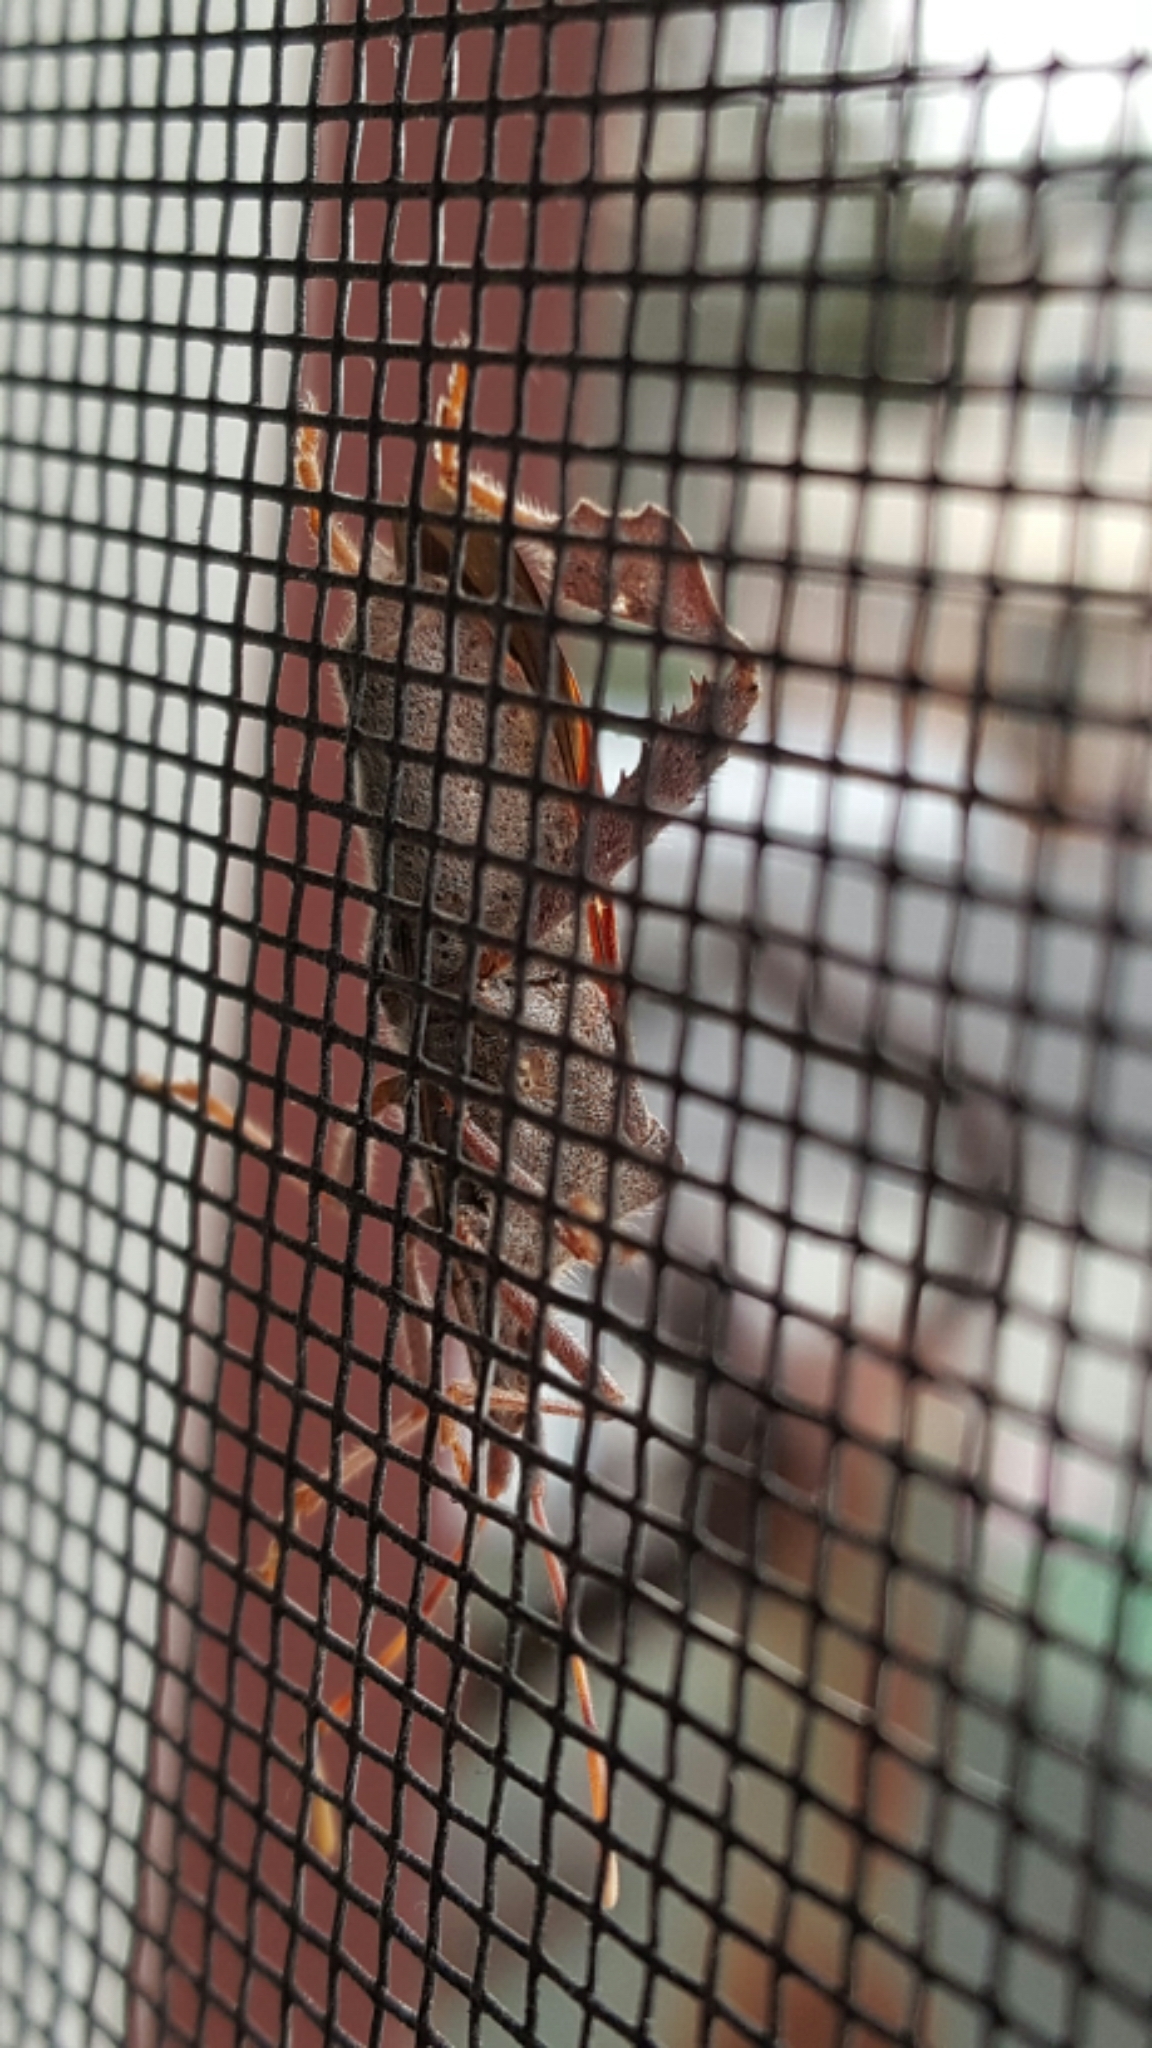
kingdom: Animalia
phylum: Arthropoda
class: Insecta
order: Hemiptera
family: Coreidae
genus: Leptoglossus
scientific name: Leptoglossus oppositus
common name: Northern leaf-footed bug
